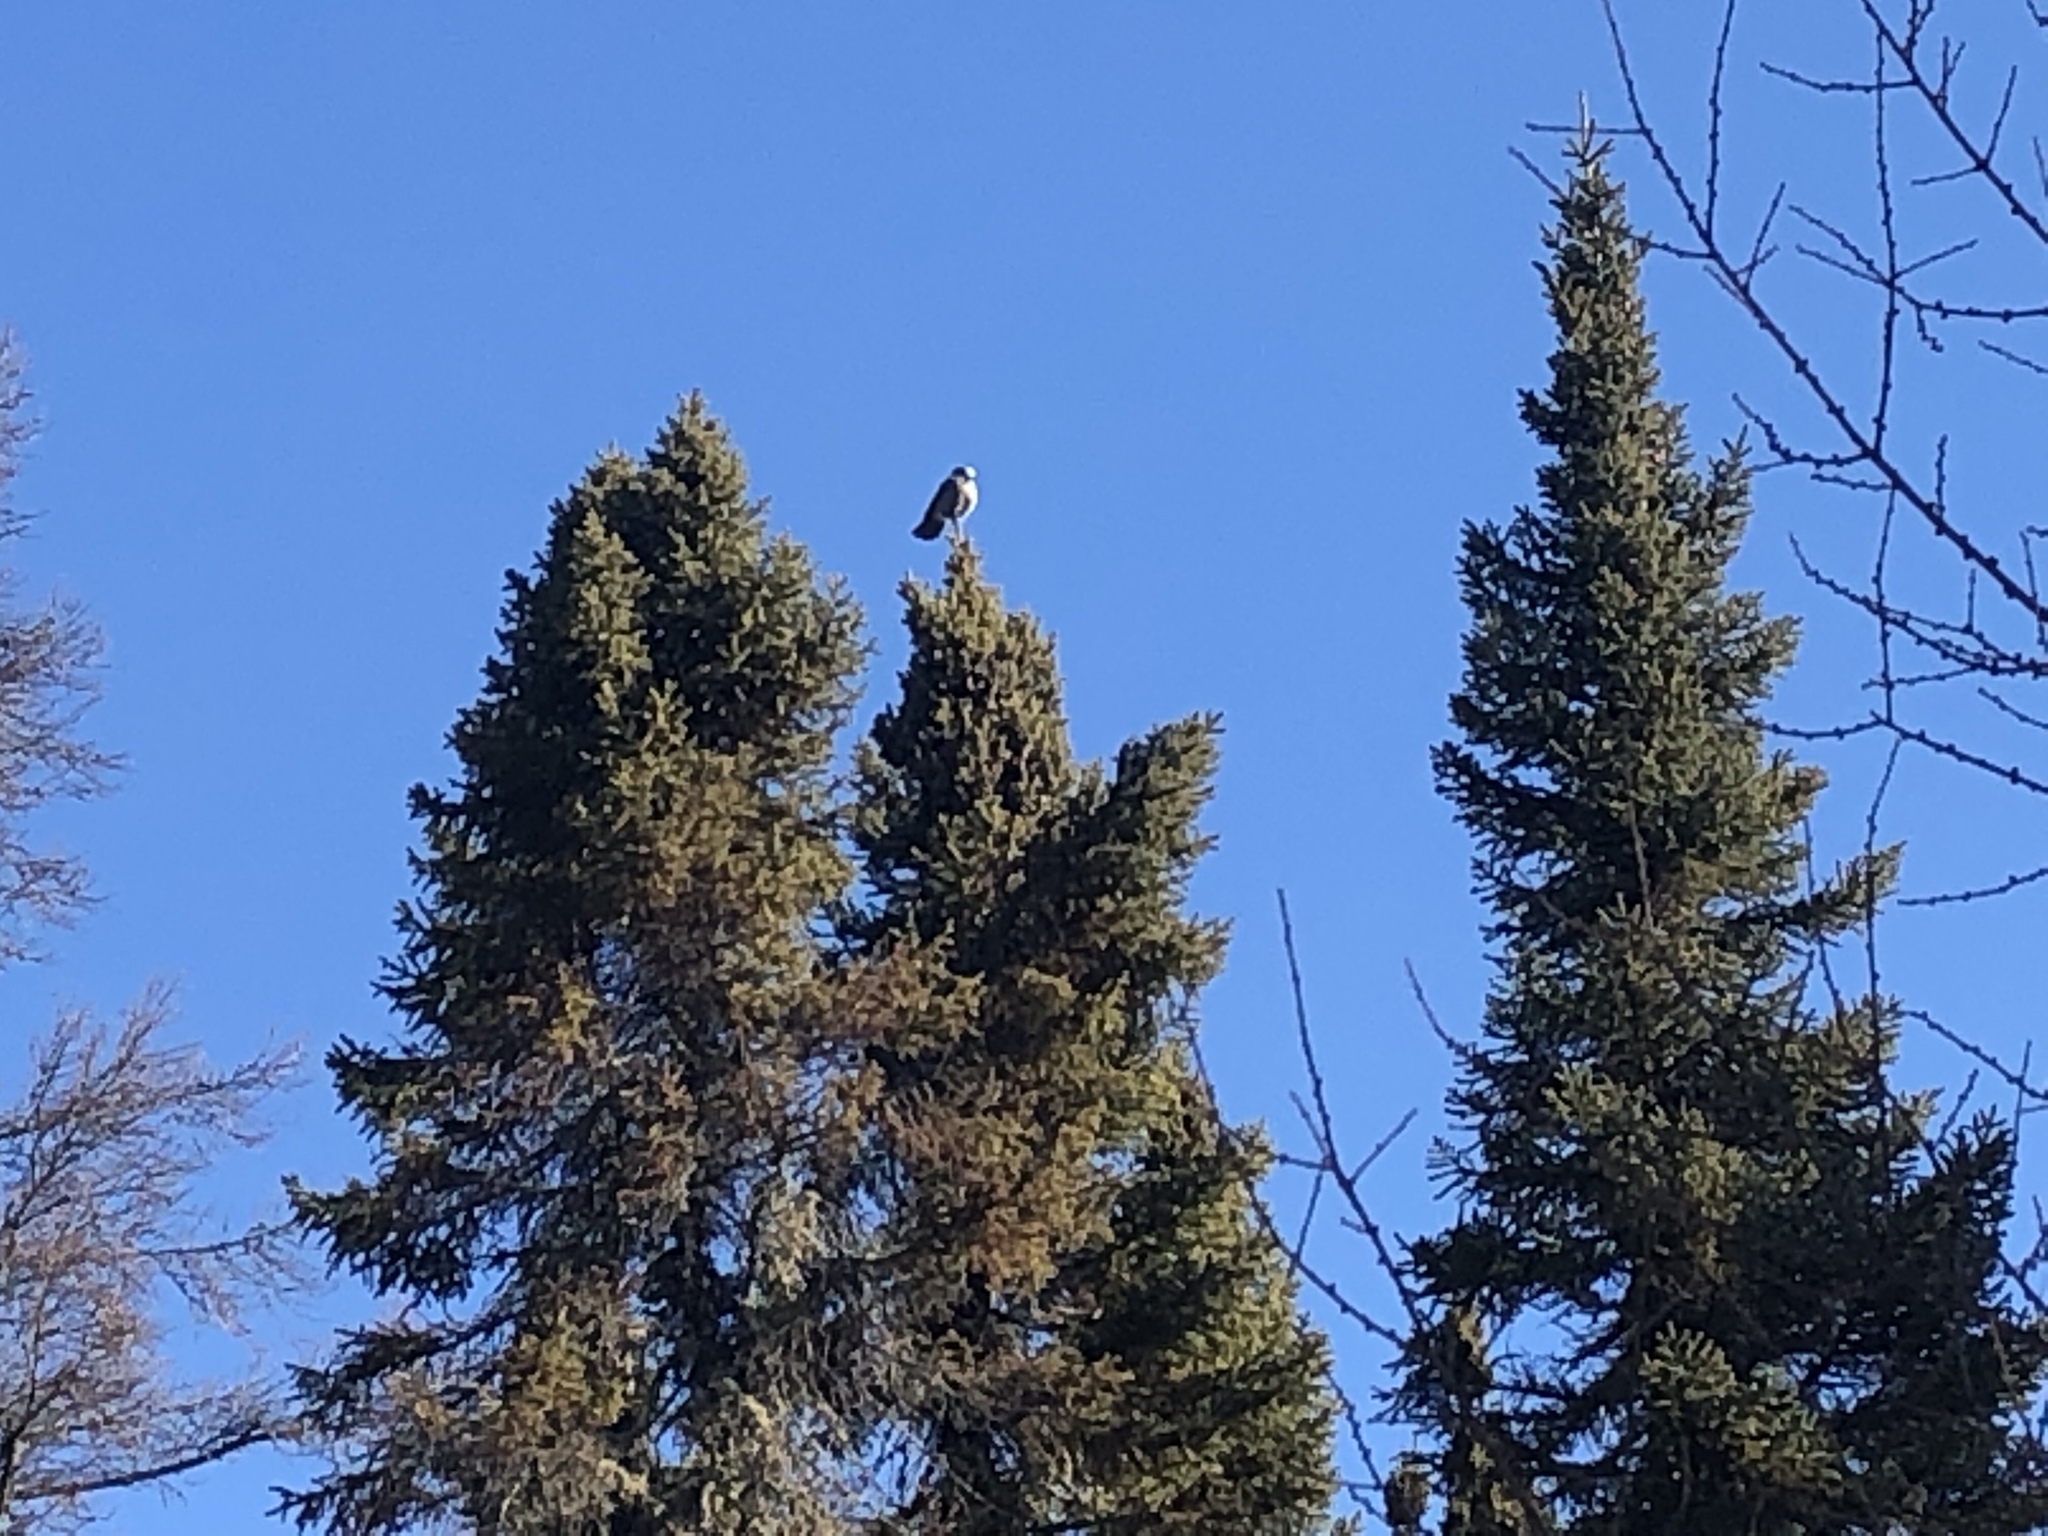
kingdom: Animalia
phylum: Chordata
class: Aves
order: Passeriformes
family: Corvidae
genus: Perisoreus
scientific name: Perisoreus canadensis
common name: Gray jay
